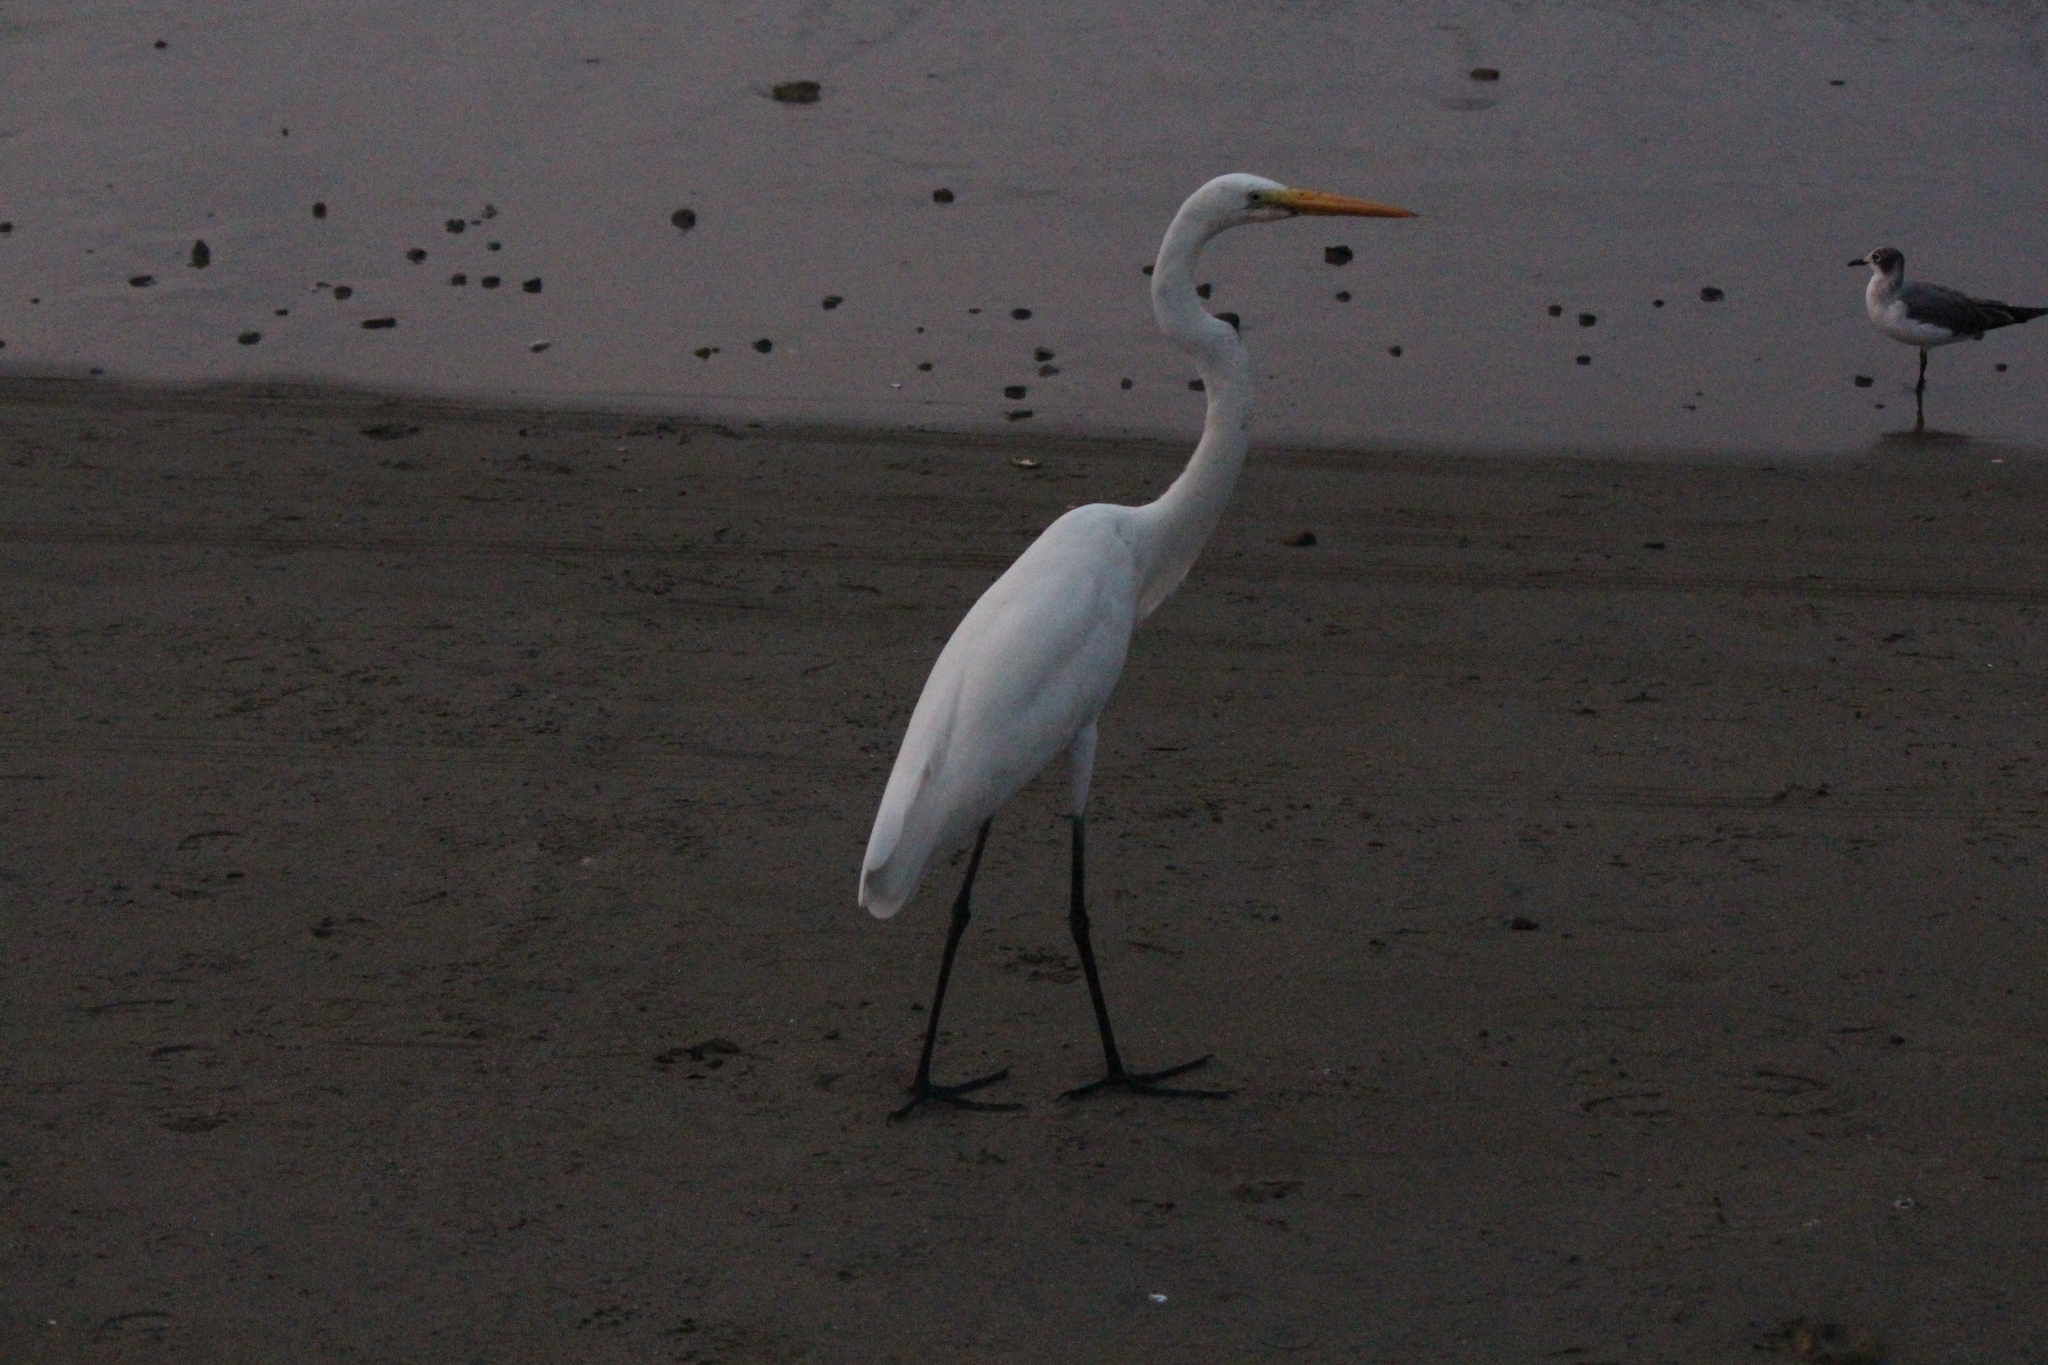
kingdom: Animalia
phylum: Chordata
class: Aves
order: Pelecaniformes
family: Ardeidae
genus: Ardea
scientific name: Ardea alba
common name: Great egret
